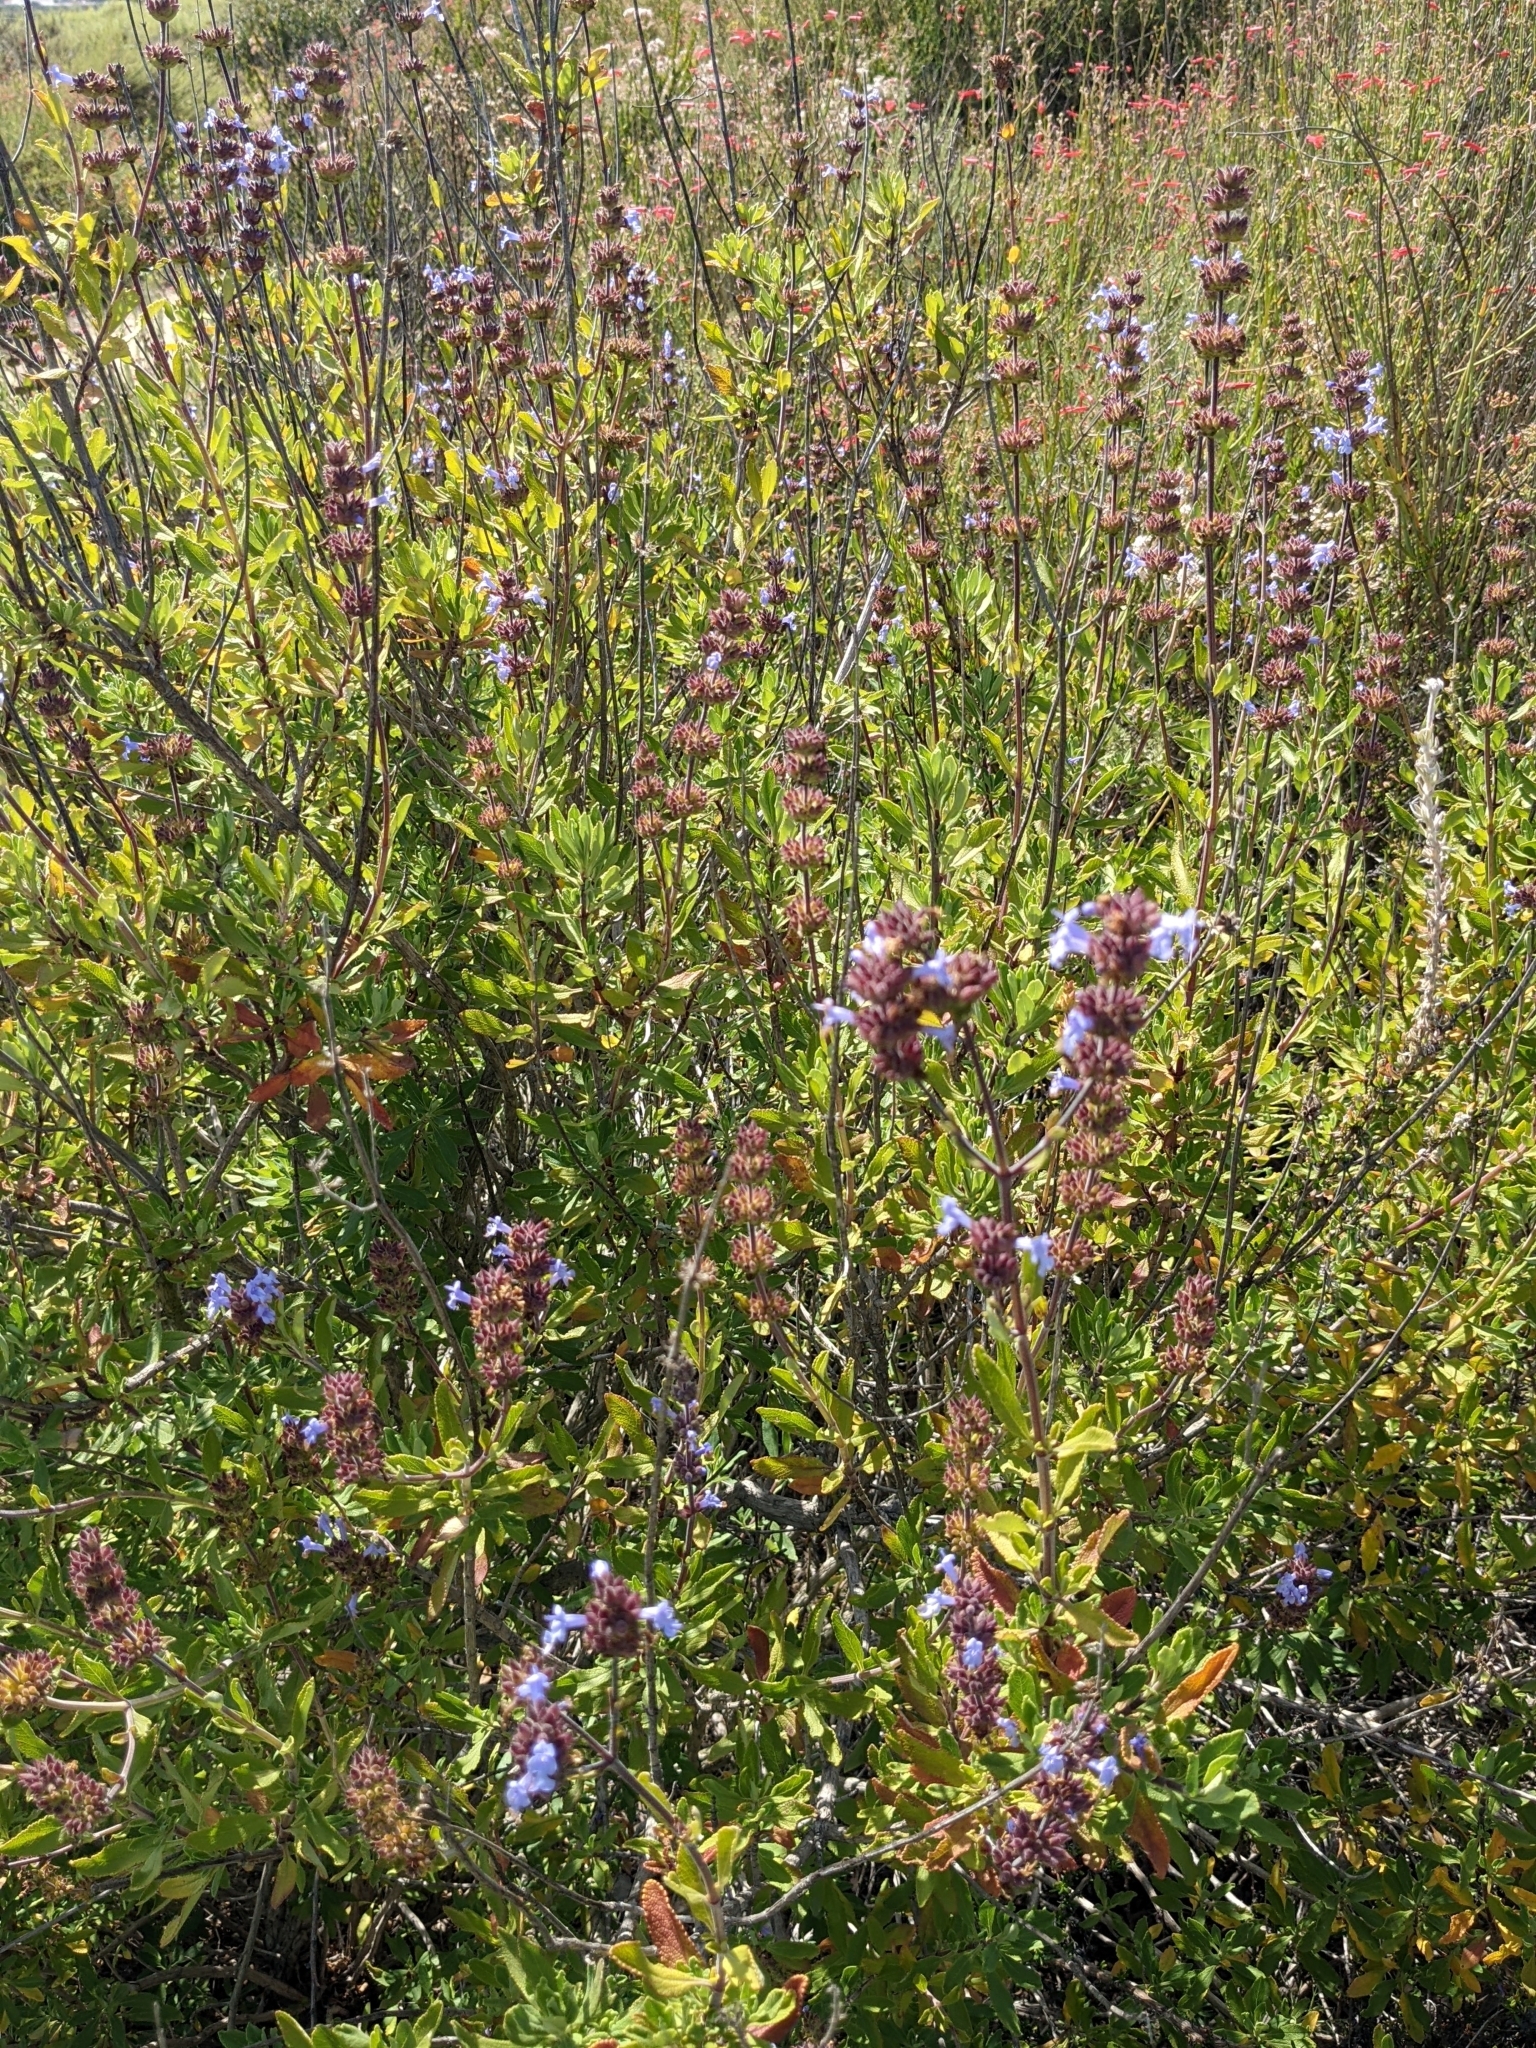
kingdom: Plantae
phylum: Tracheophyta
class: Magnoliopsida
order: Lamiales
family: Lamiaceae
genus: Salvia
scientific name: Salvia munzii
